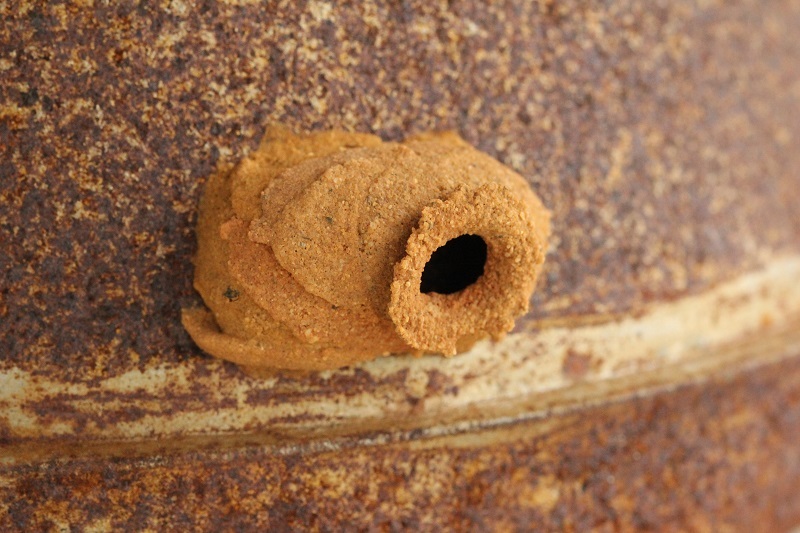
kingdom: Animalia
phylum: Arthropoda
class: Insecta
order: Hymenoptera
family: Eumenidae
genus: Delta
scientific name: Delta
